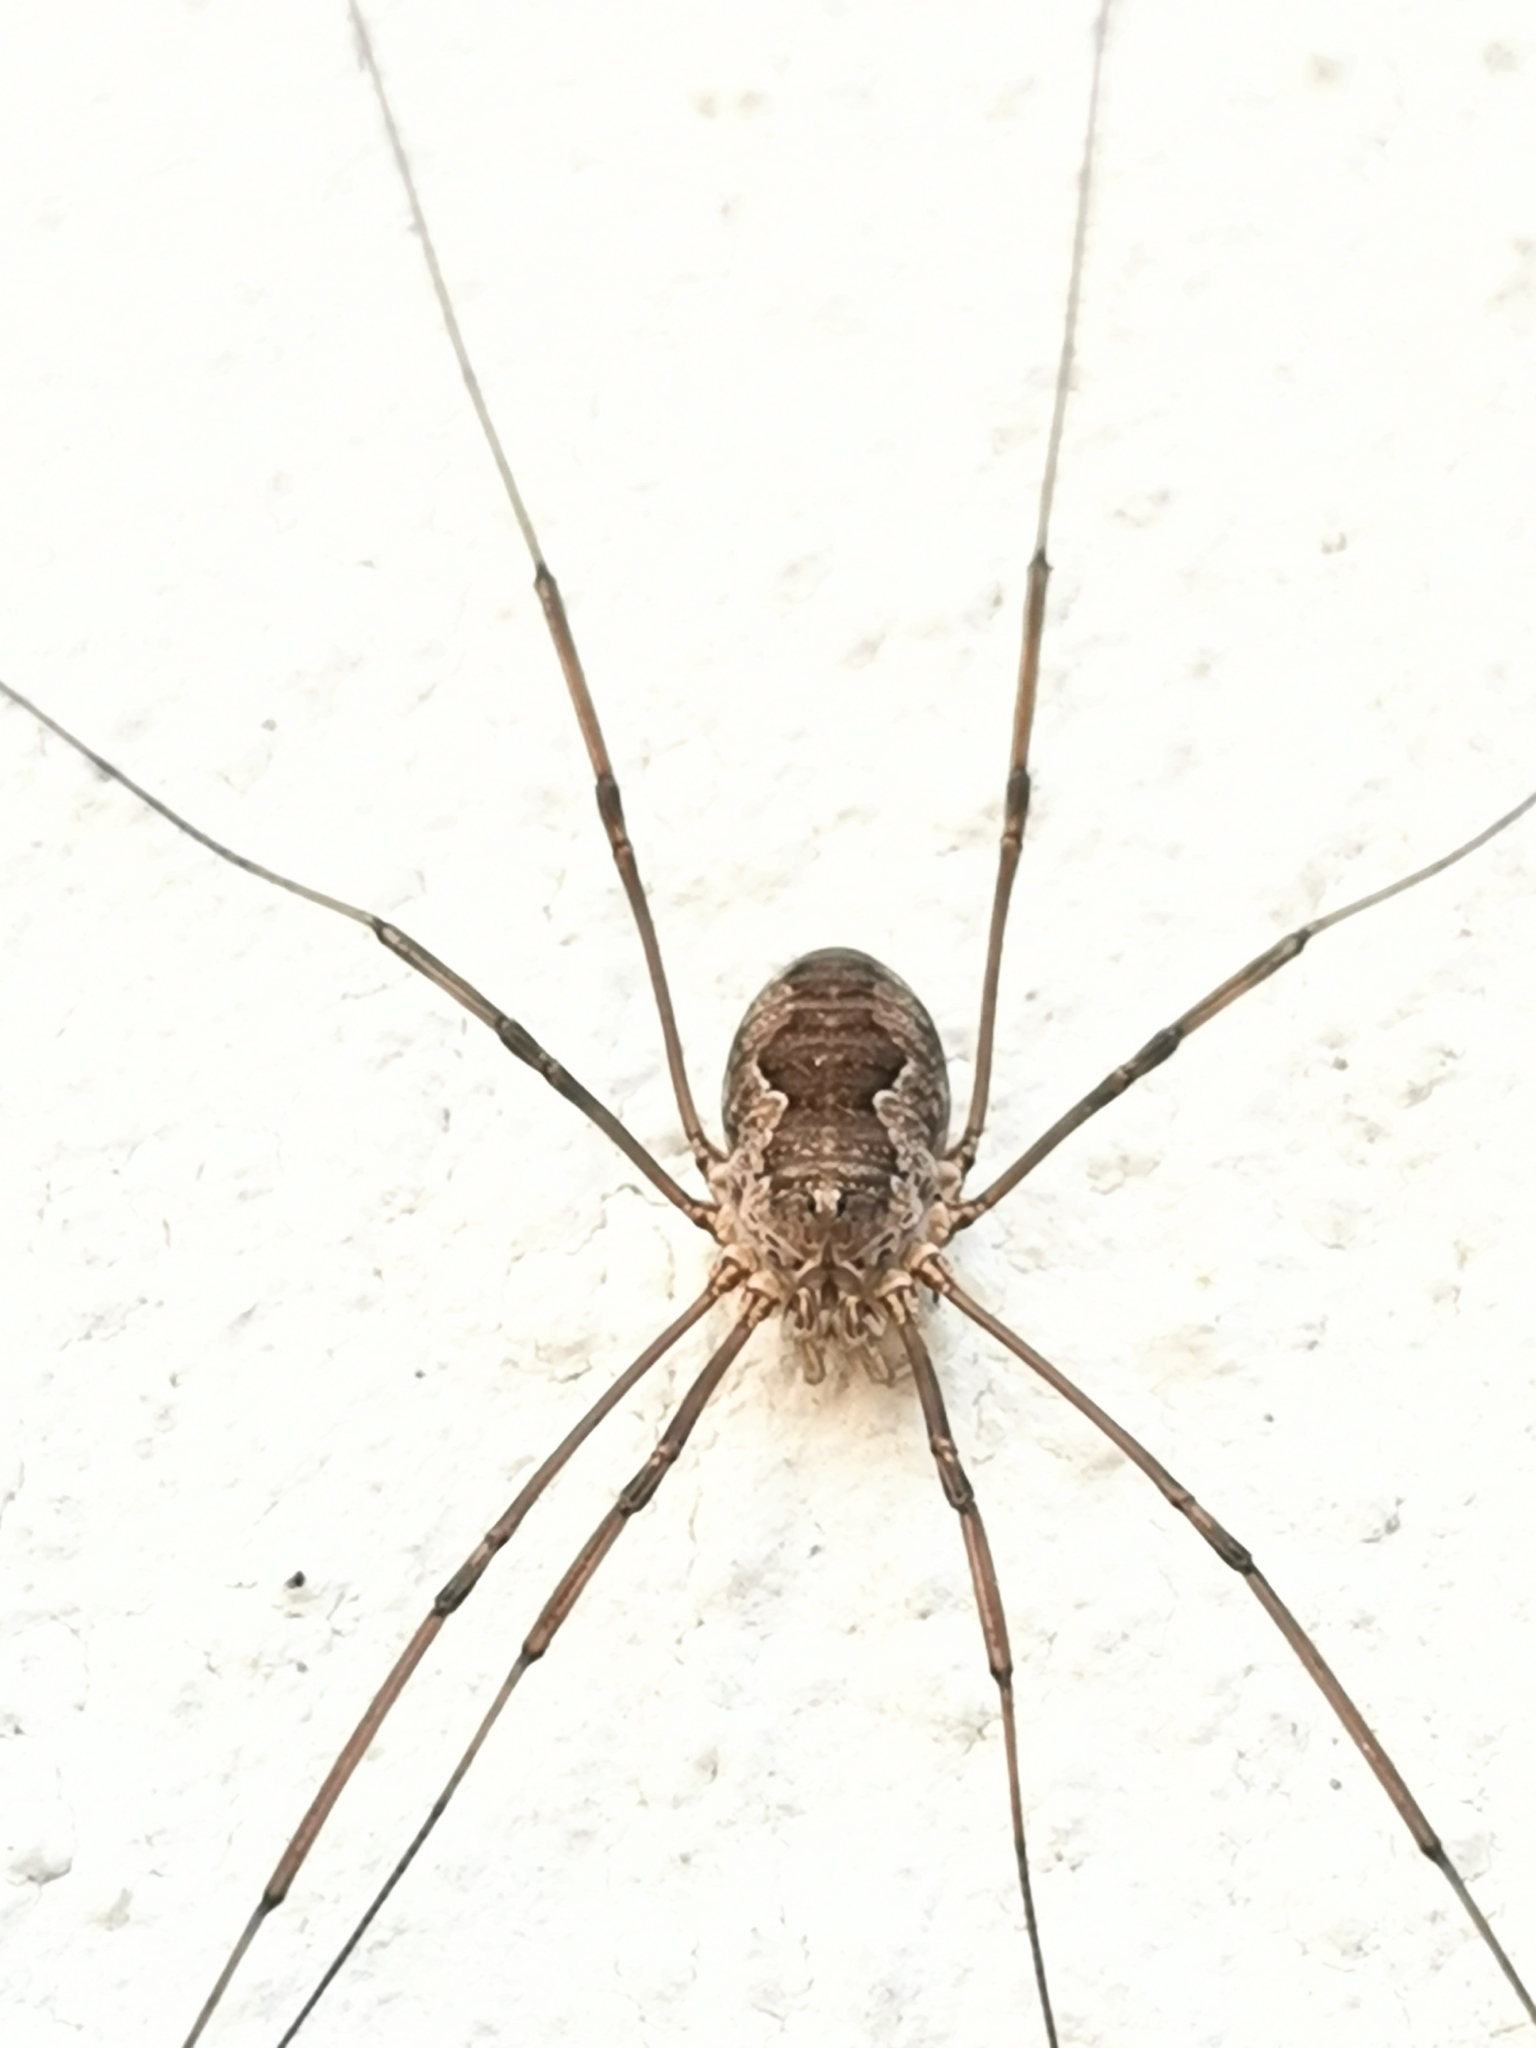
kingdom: Animalia
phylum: Arthropoda
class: Arachnida
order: Opiliones
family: Phalangiidae
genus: Phalangium
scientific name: Phalangium opilio
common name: Daddy longleg
